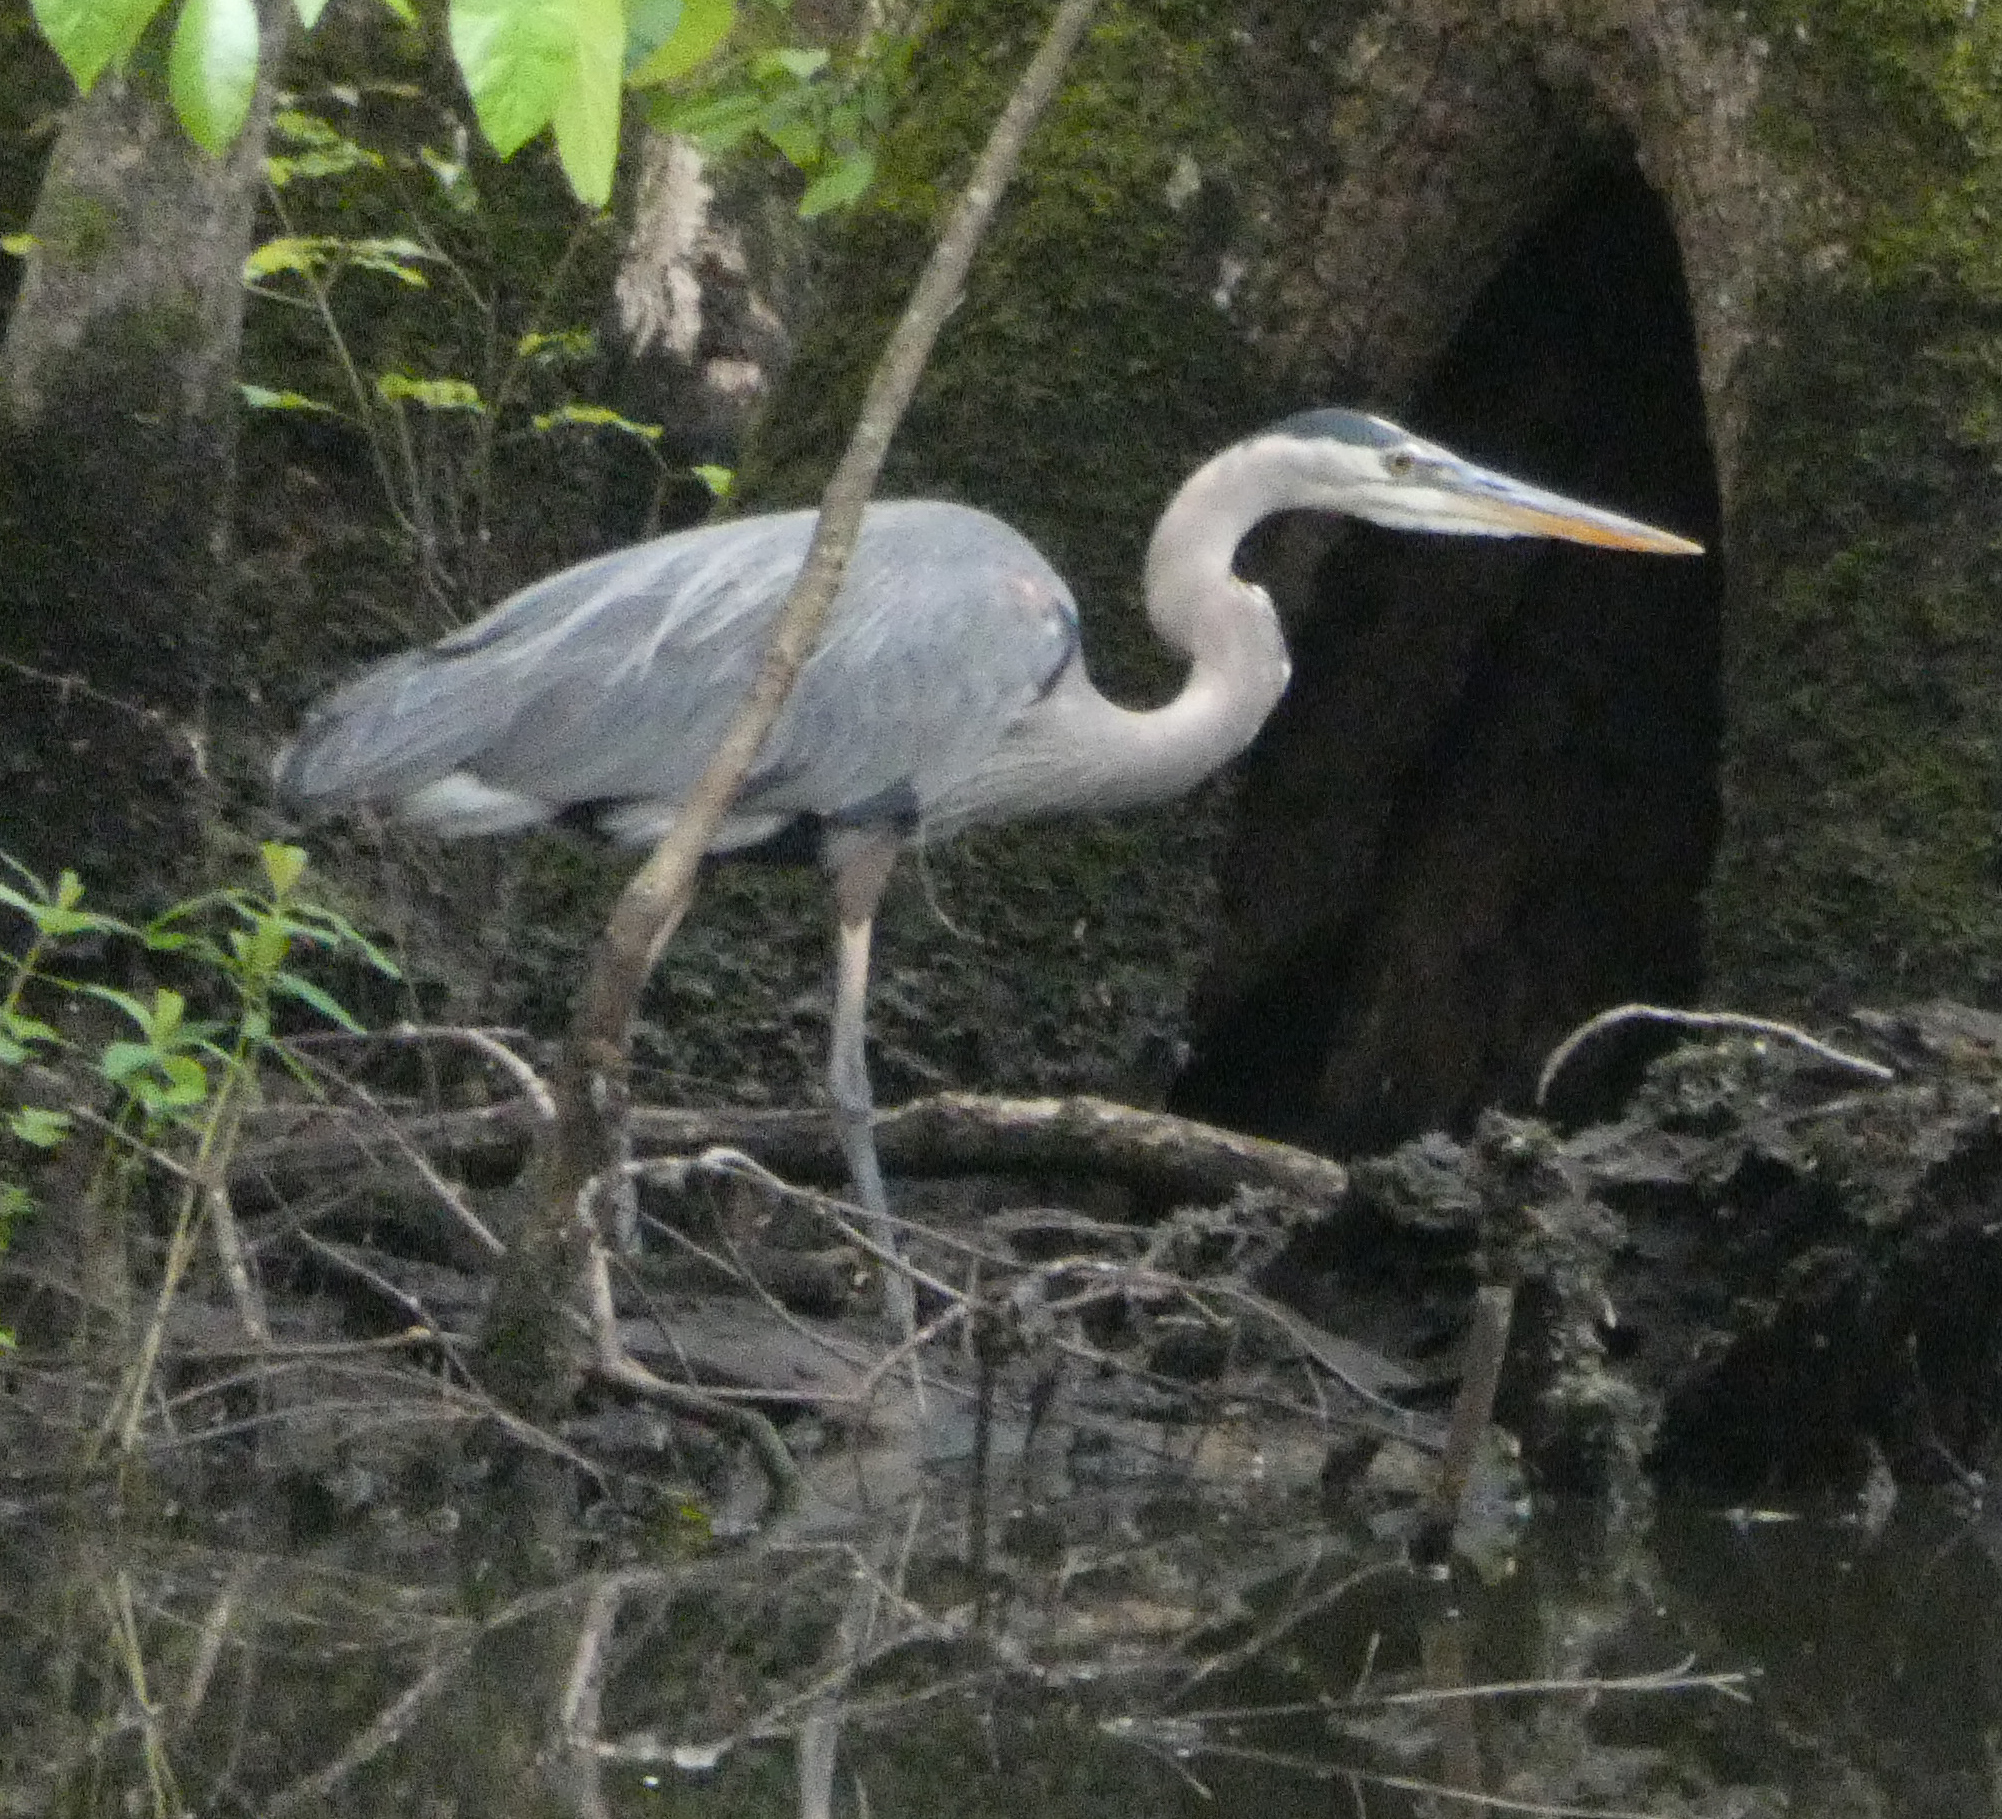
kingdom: Animalia
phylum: Chordata
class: Aves
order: Pelecaniformes
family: Ardeidae
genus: Ardea
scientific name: Ardea herodias
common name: Great blue heron
